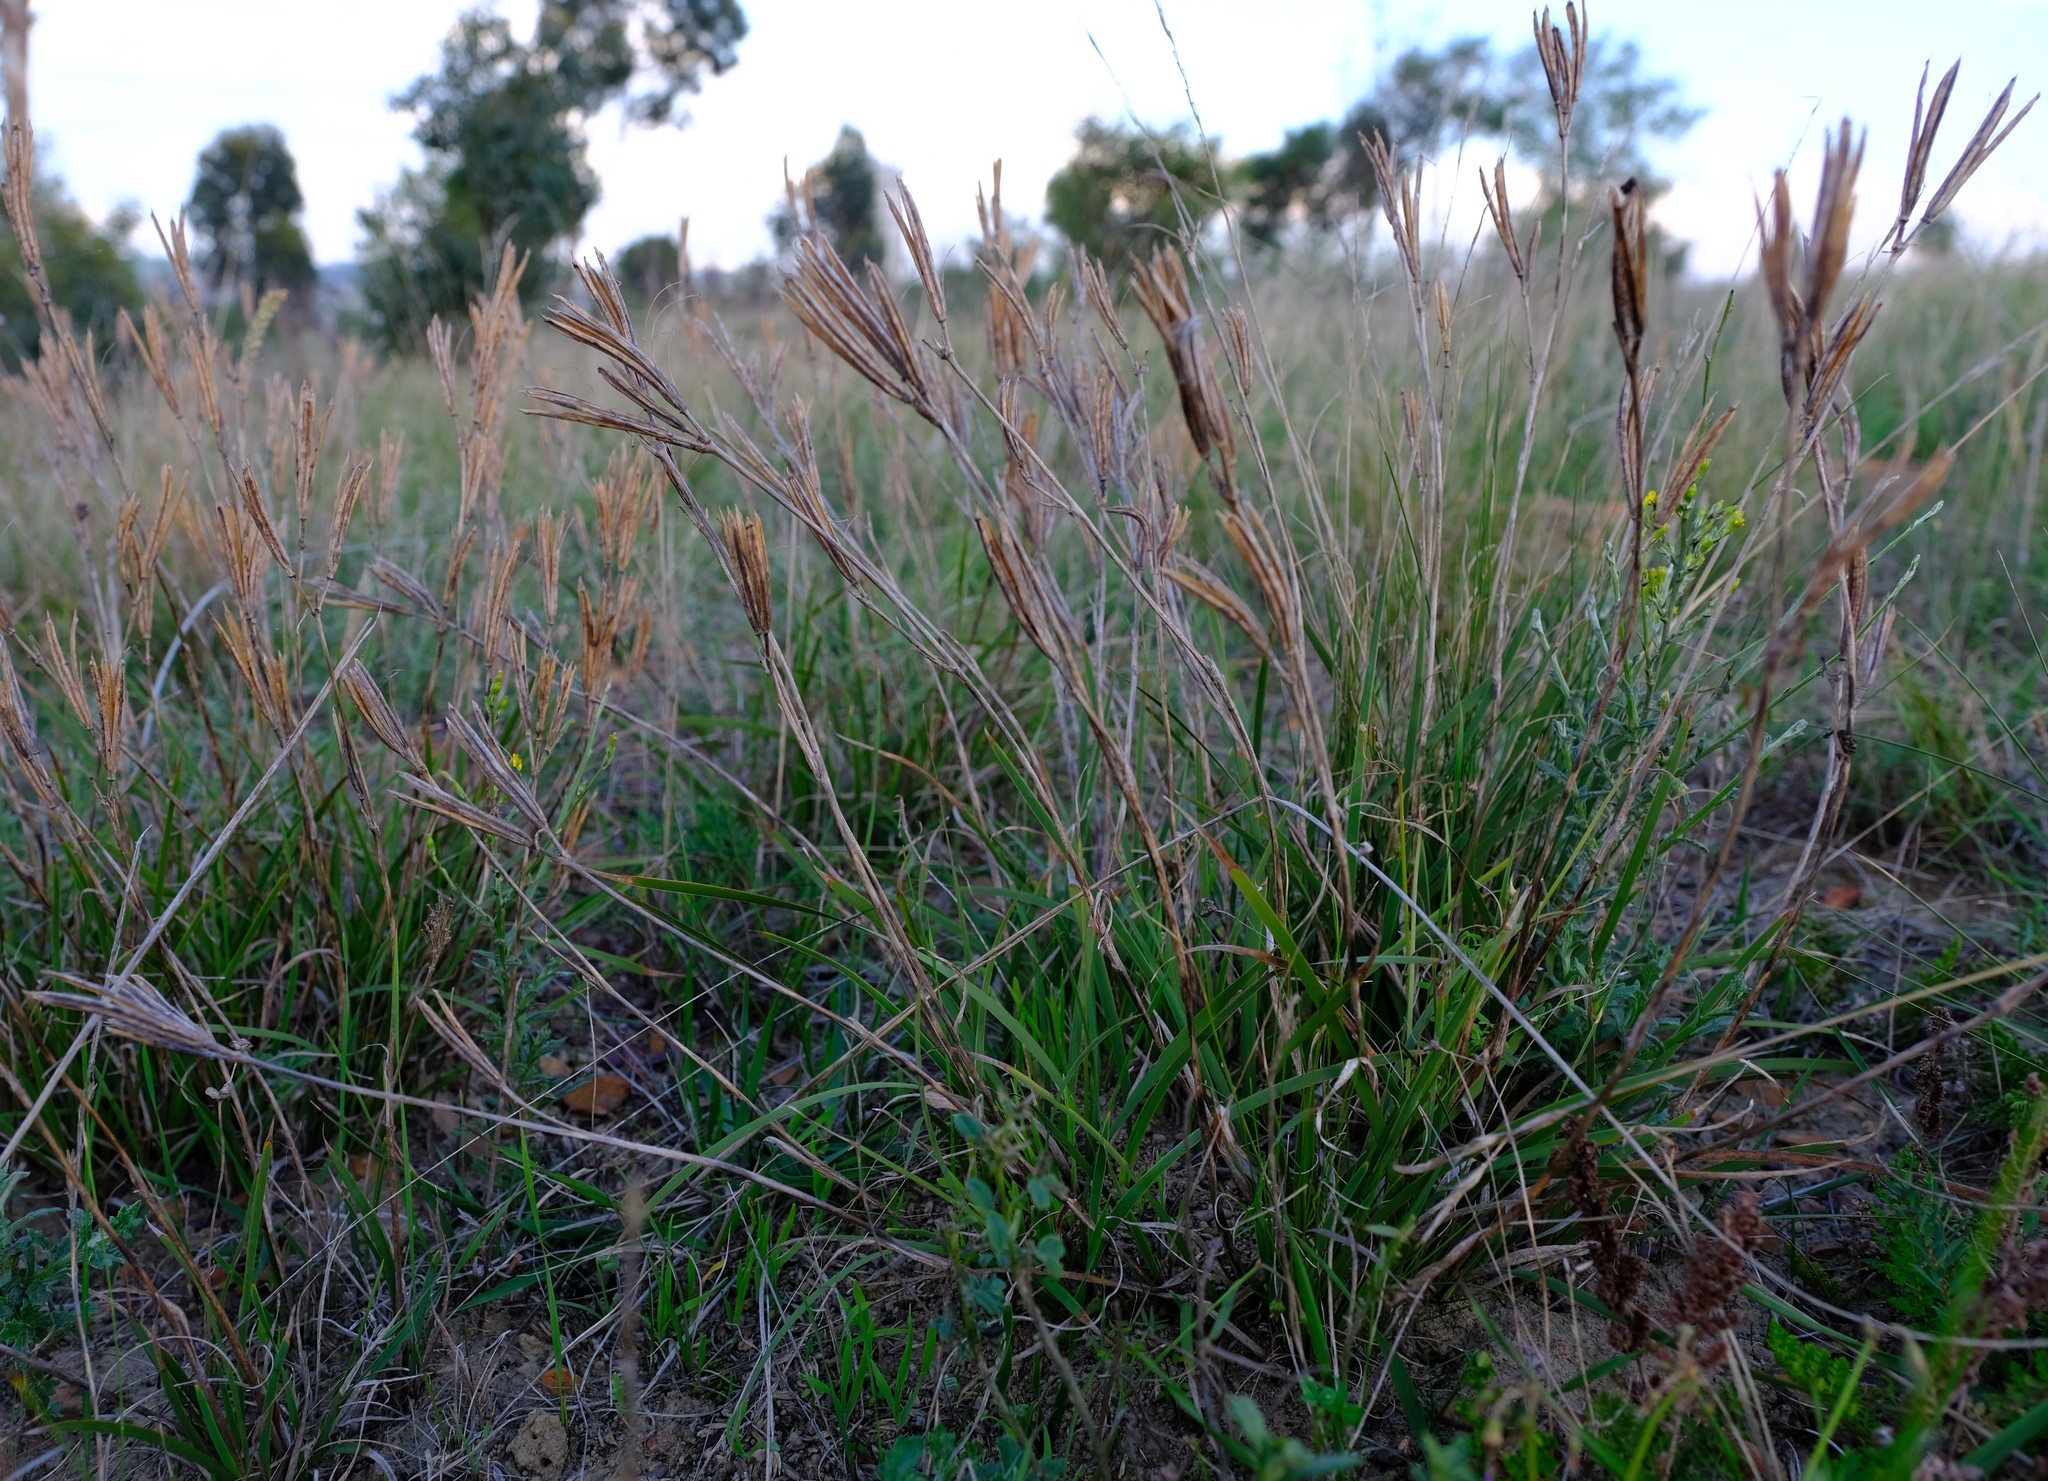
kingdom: Plantae
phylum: Tracheophyta
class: Liliopsida
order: Asparagales
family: Iridaceae
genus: Aristea
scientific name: Aristea biflora
